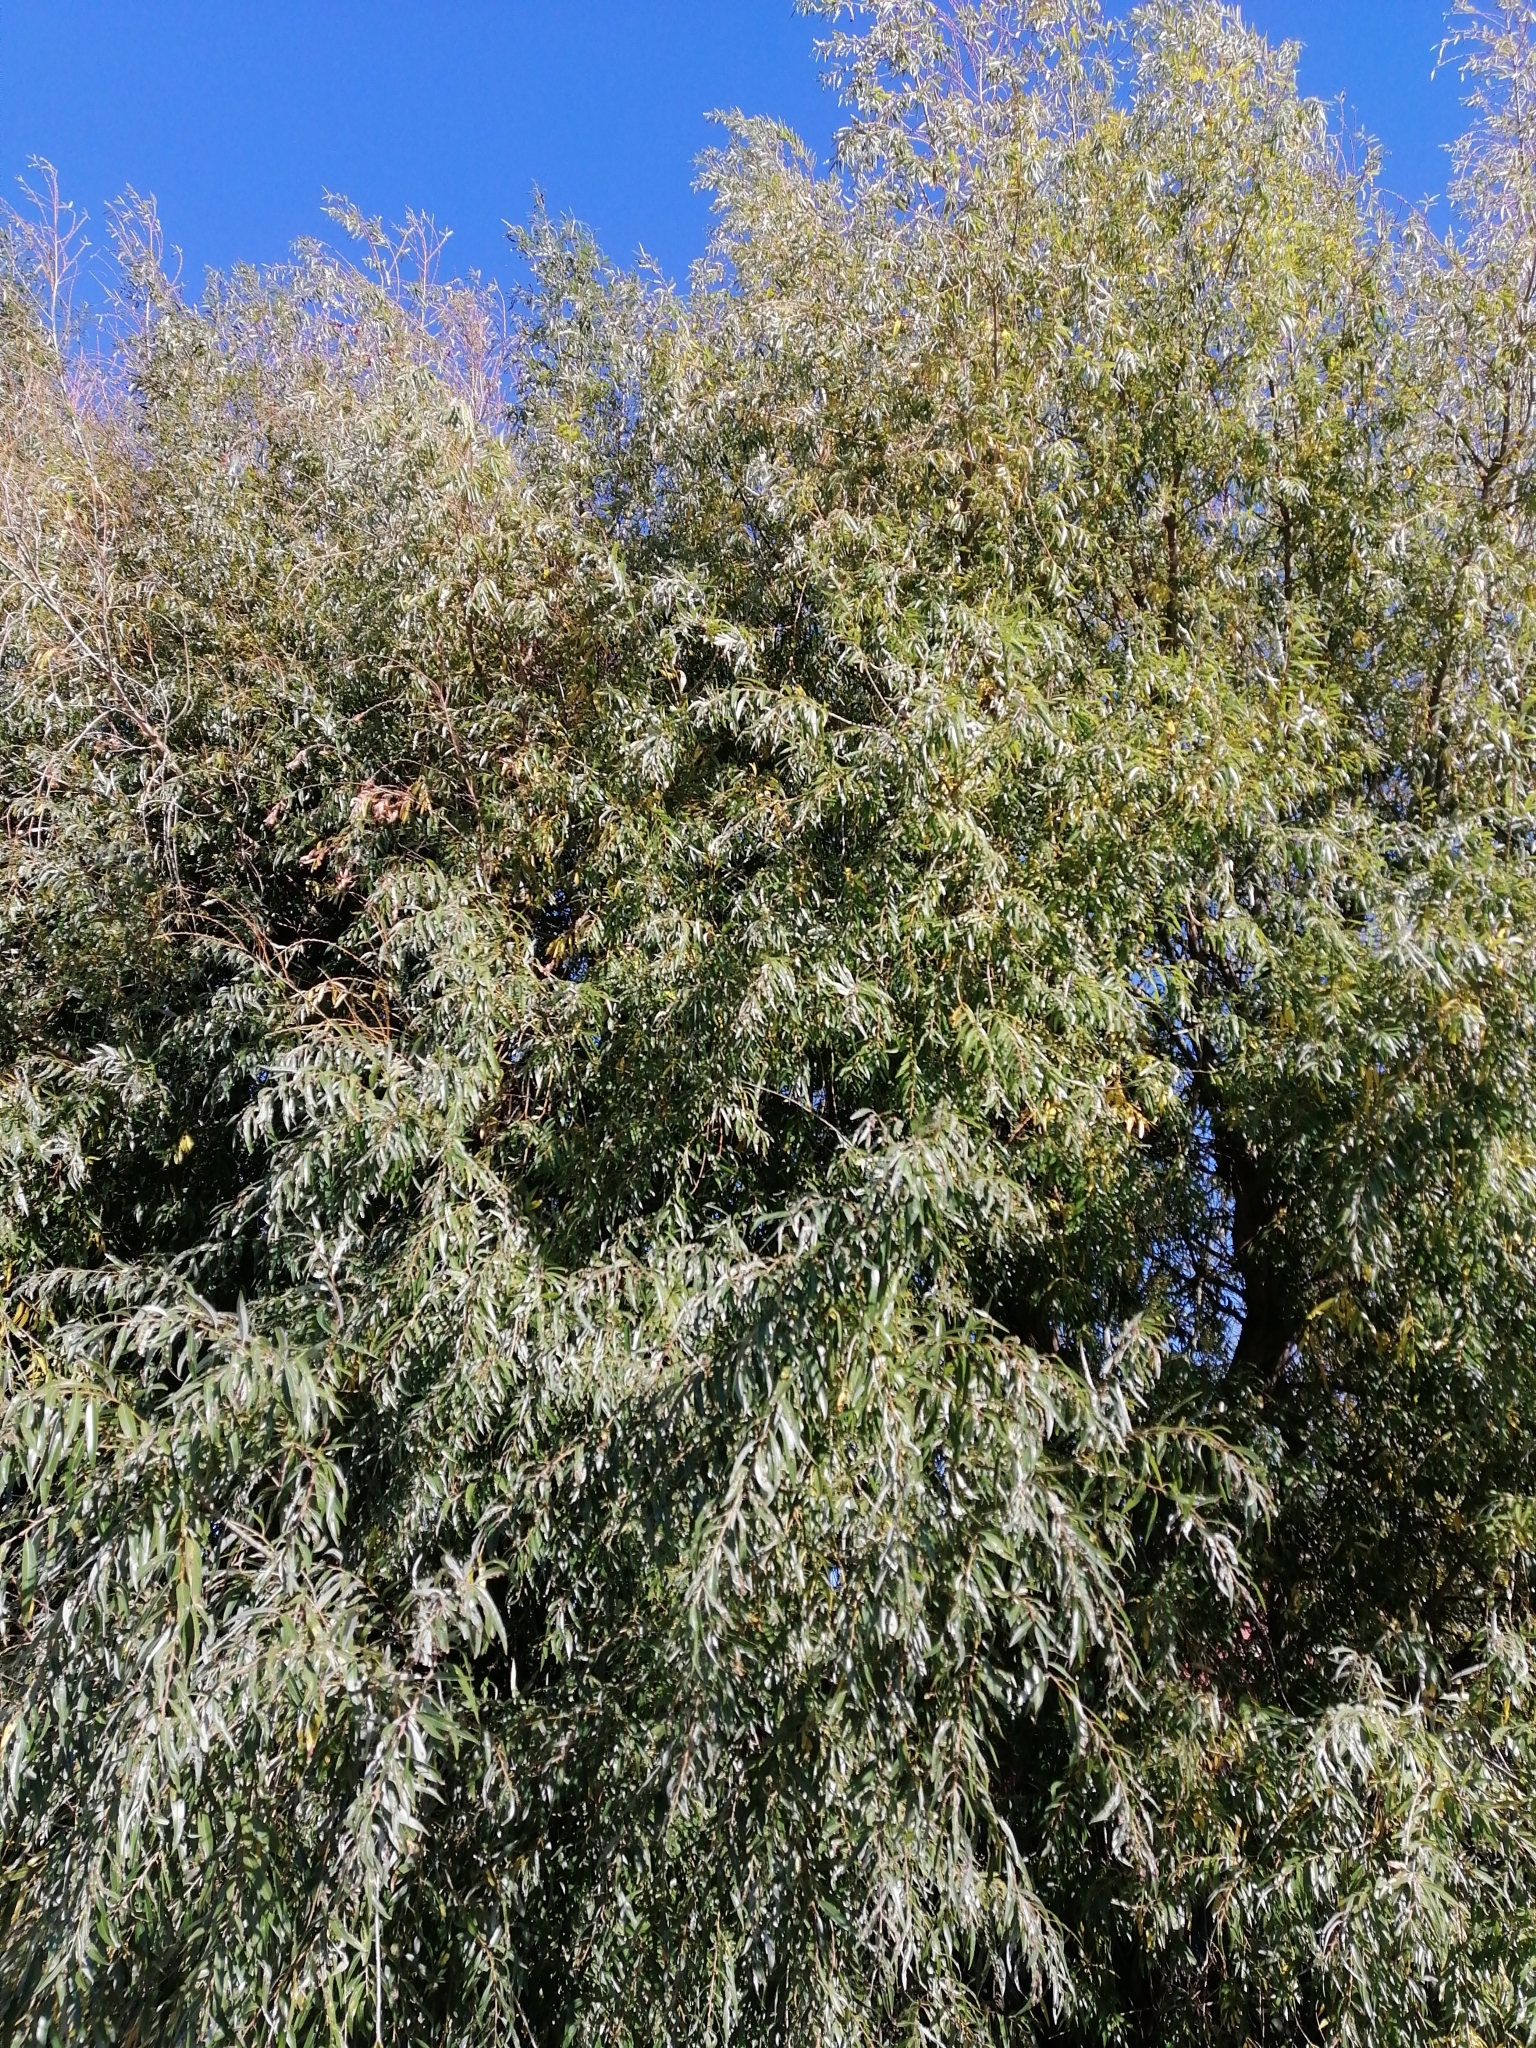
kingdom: Animalia
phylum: Arthropoda
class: Insecta
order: Hymenoptera
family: Tenthredinidae
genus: Pontania
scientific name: Pontania proxima
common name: Common sawfly
